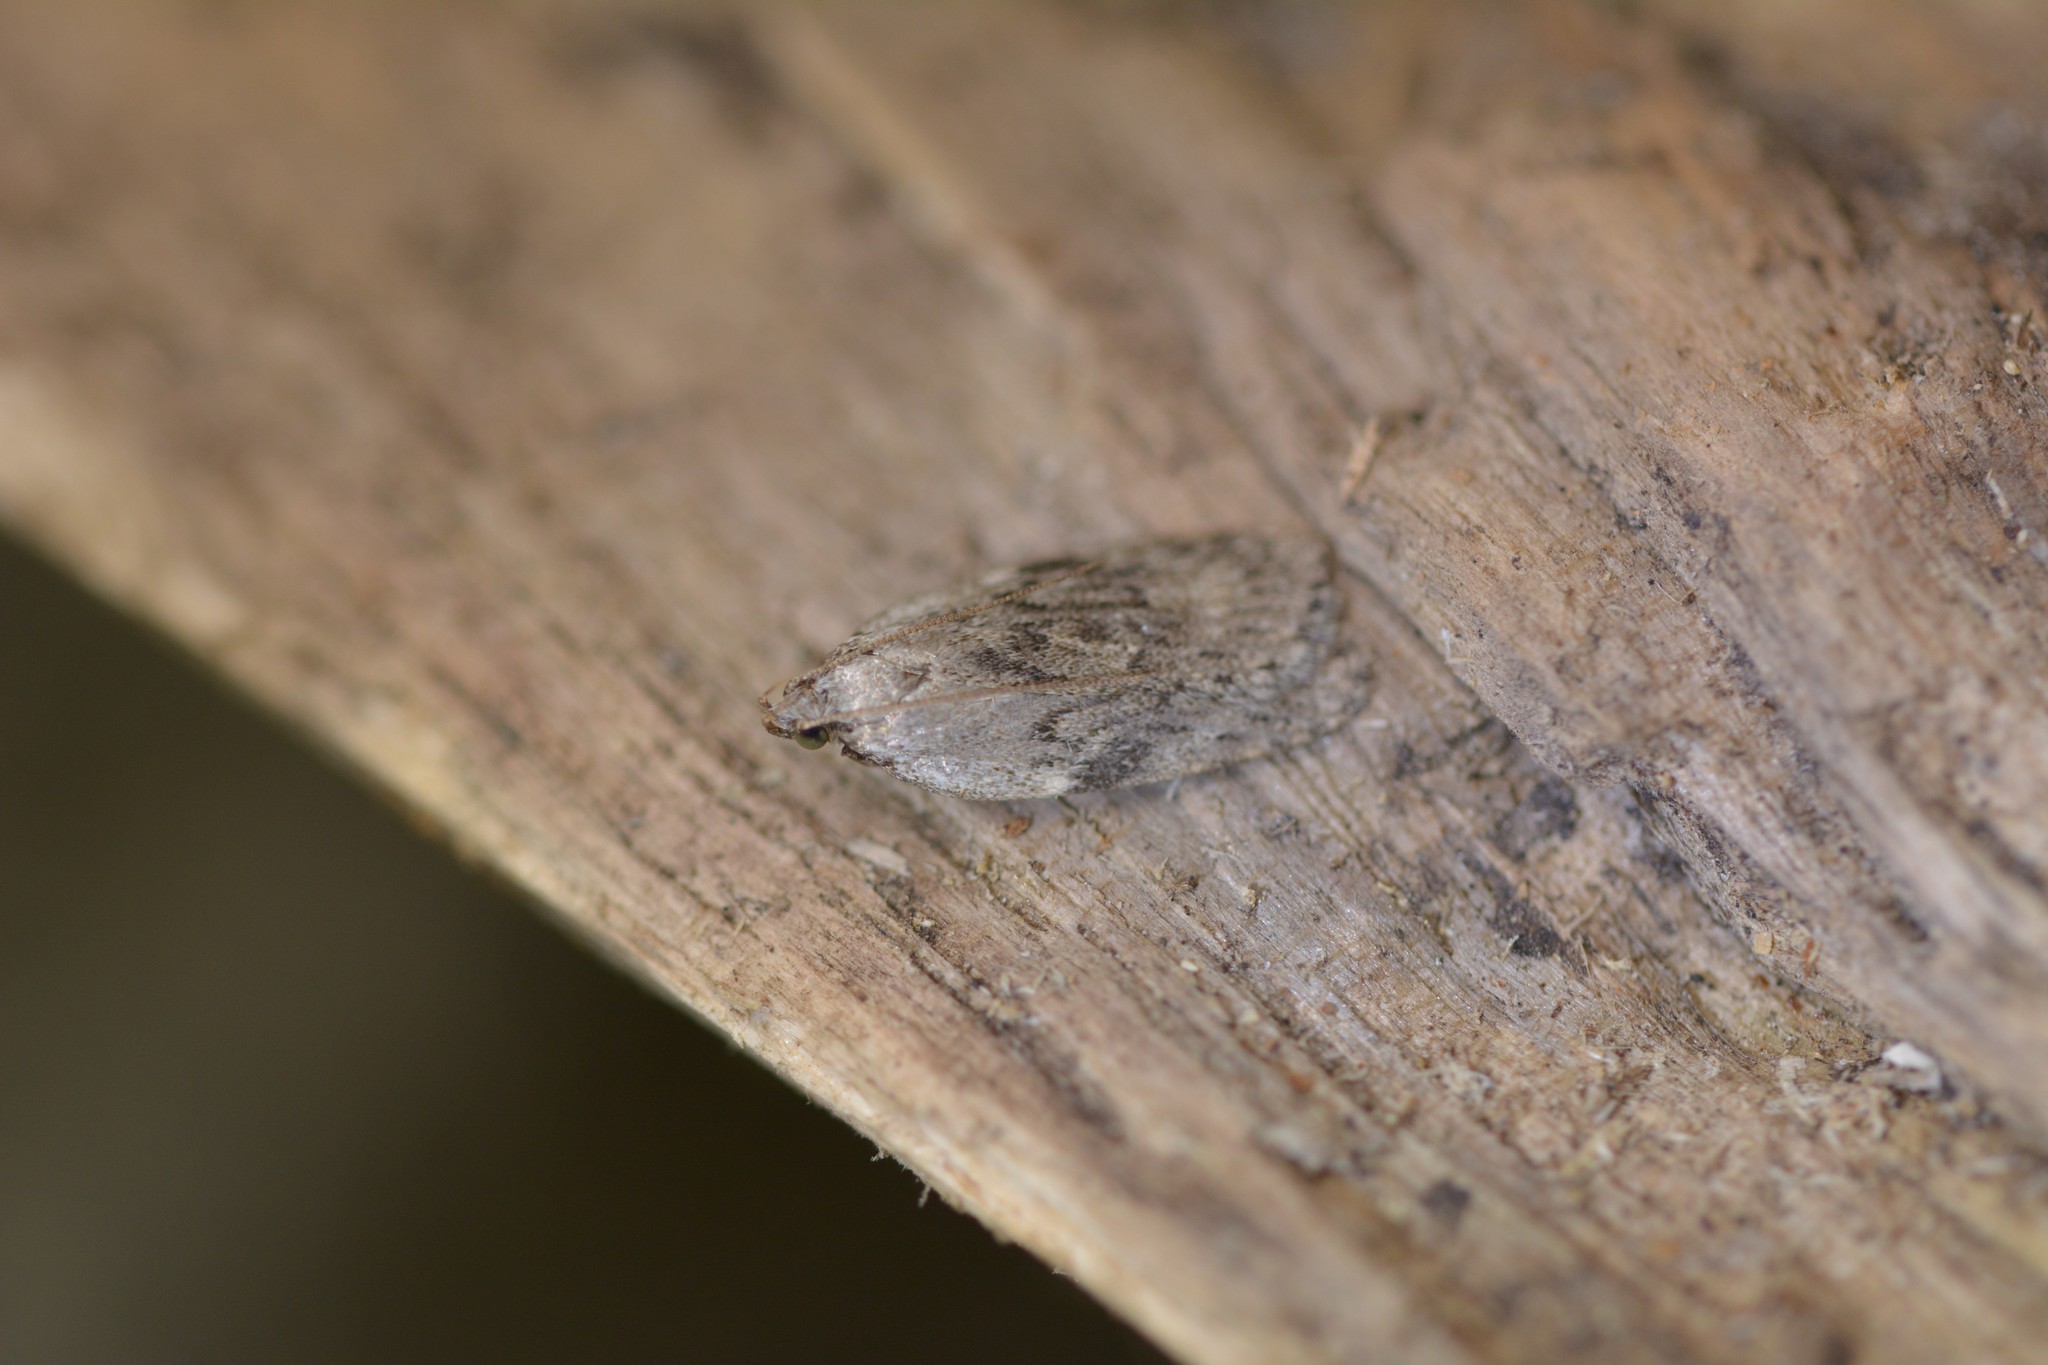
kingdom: Animalia
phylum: Arthropoda
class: Insecta
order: Lepidoptera
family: Depressariidae
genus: Phaeosaces
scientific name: Phaeosaces compsotypa
